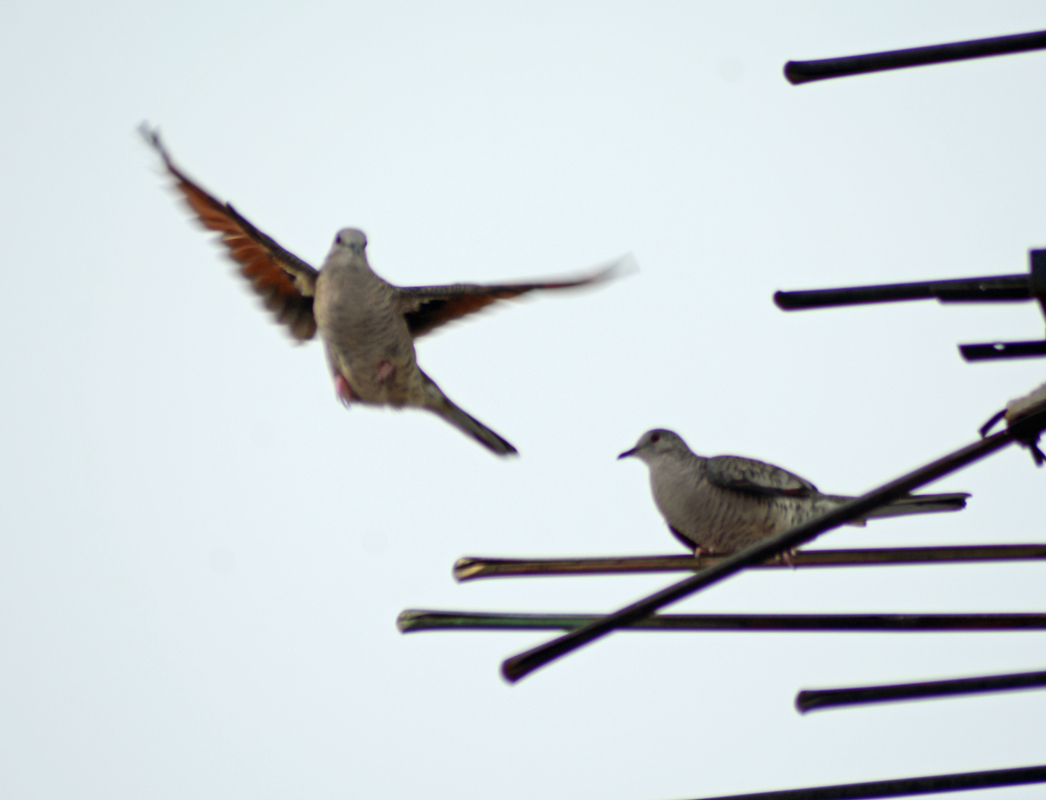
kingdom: Animalia
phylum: Chordata
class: Aves
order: Columbiformes
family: Columbidae
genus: Columbina
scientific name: Columbina inca
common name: Inca dove
